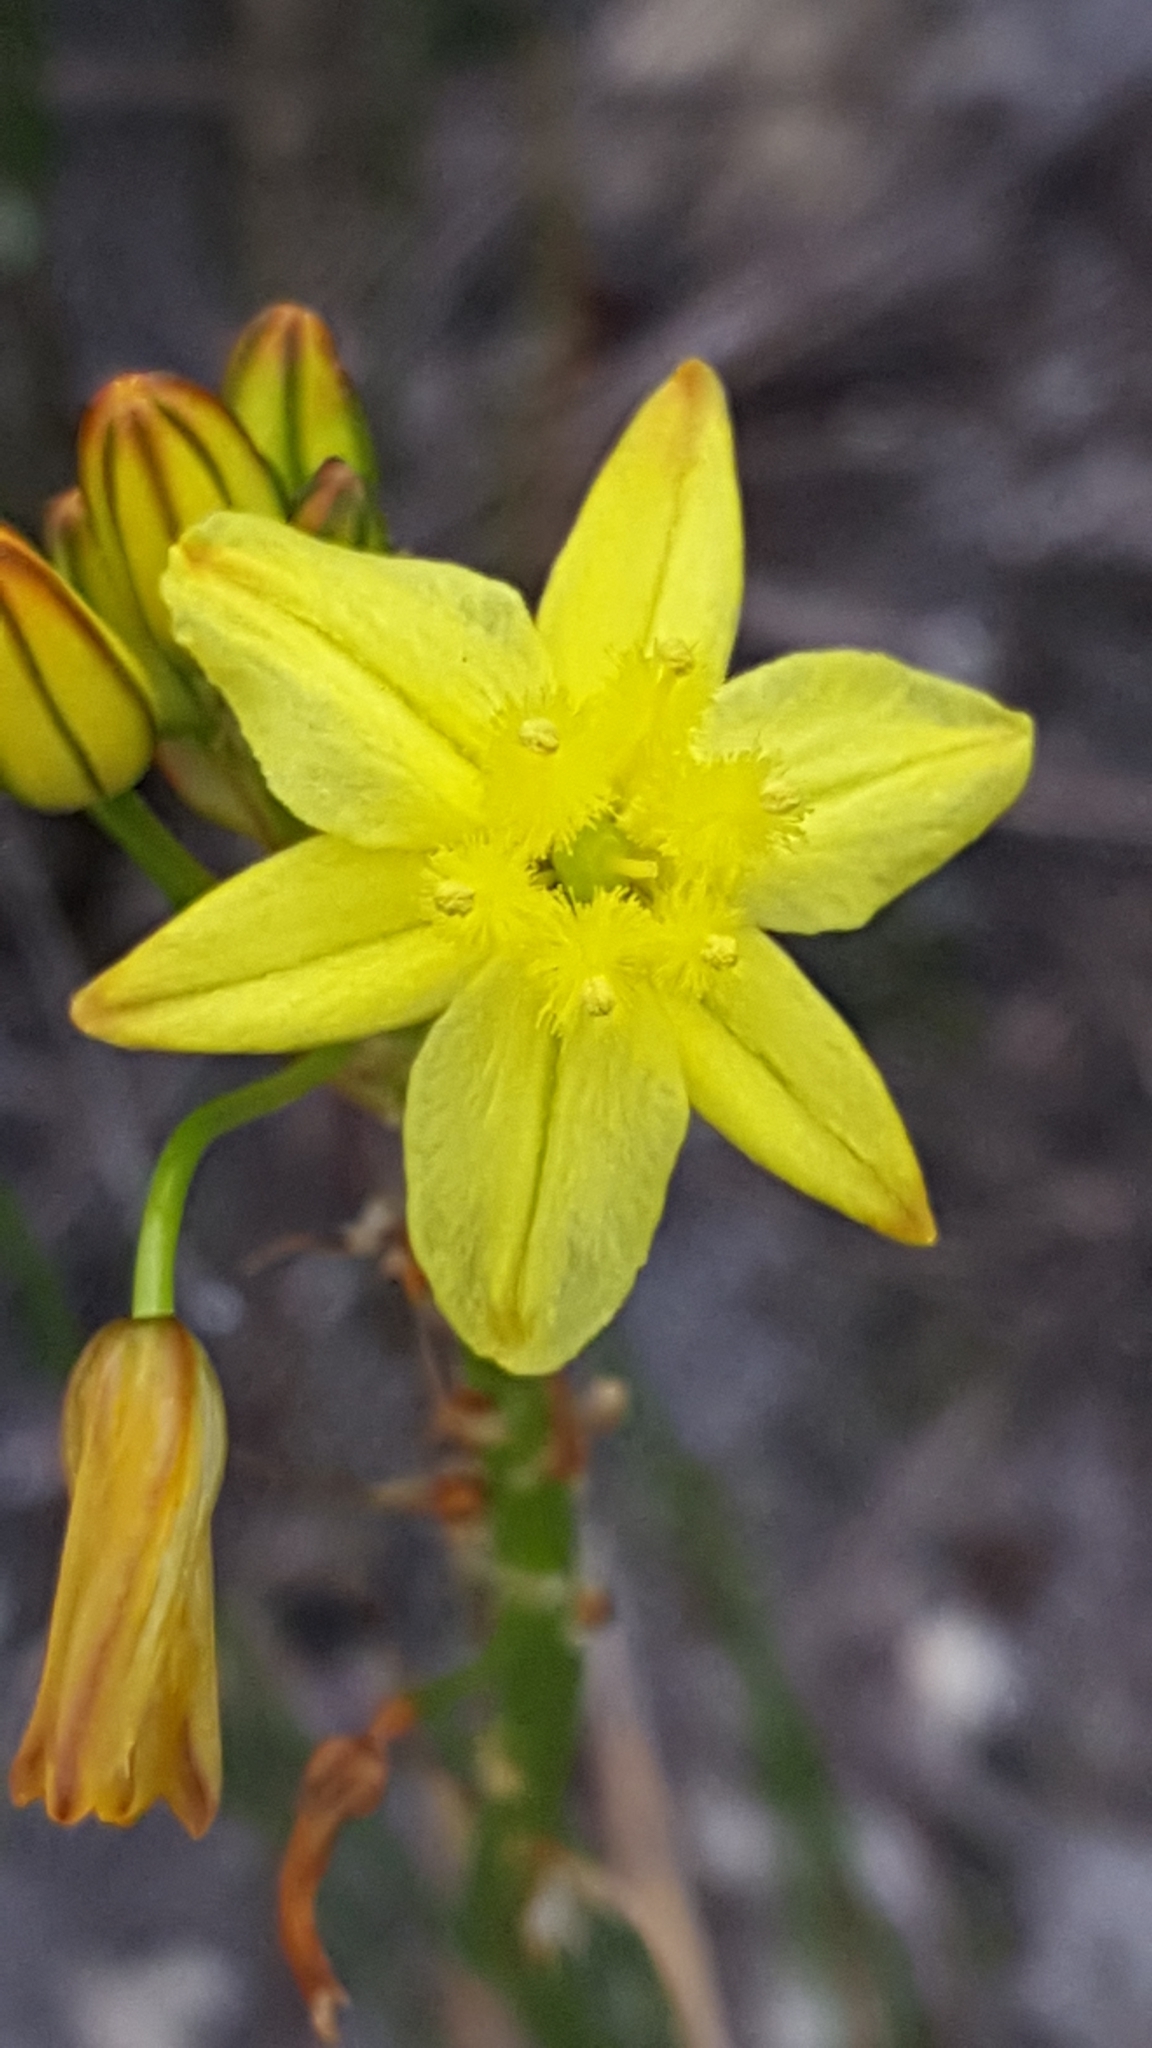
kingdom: Plantae
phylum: Tracheophyta
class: Liliopsida
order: Asparagales
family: Asphodelaceae
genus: Bulbine
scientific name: Bulbine
